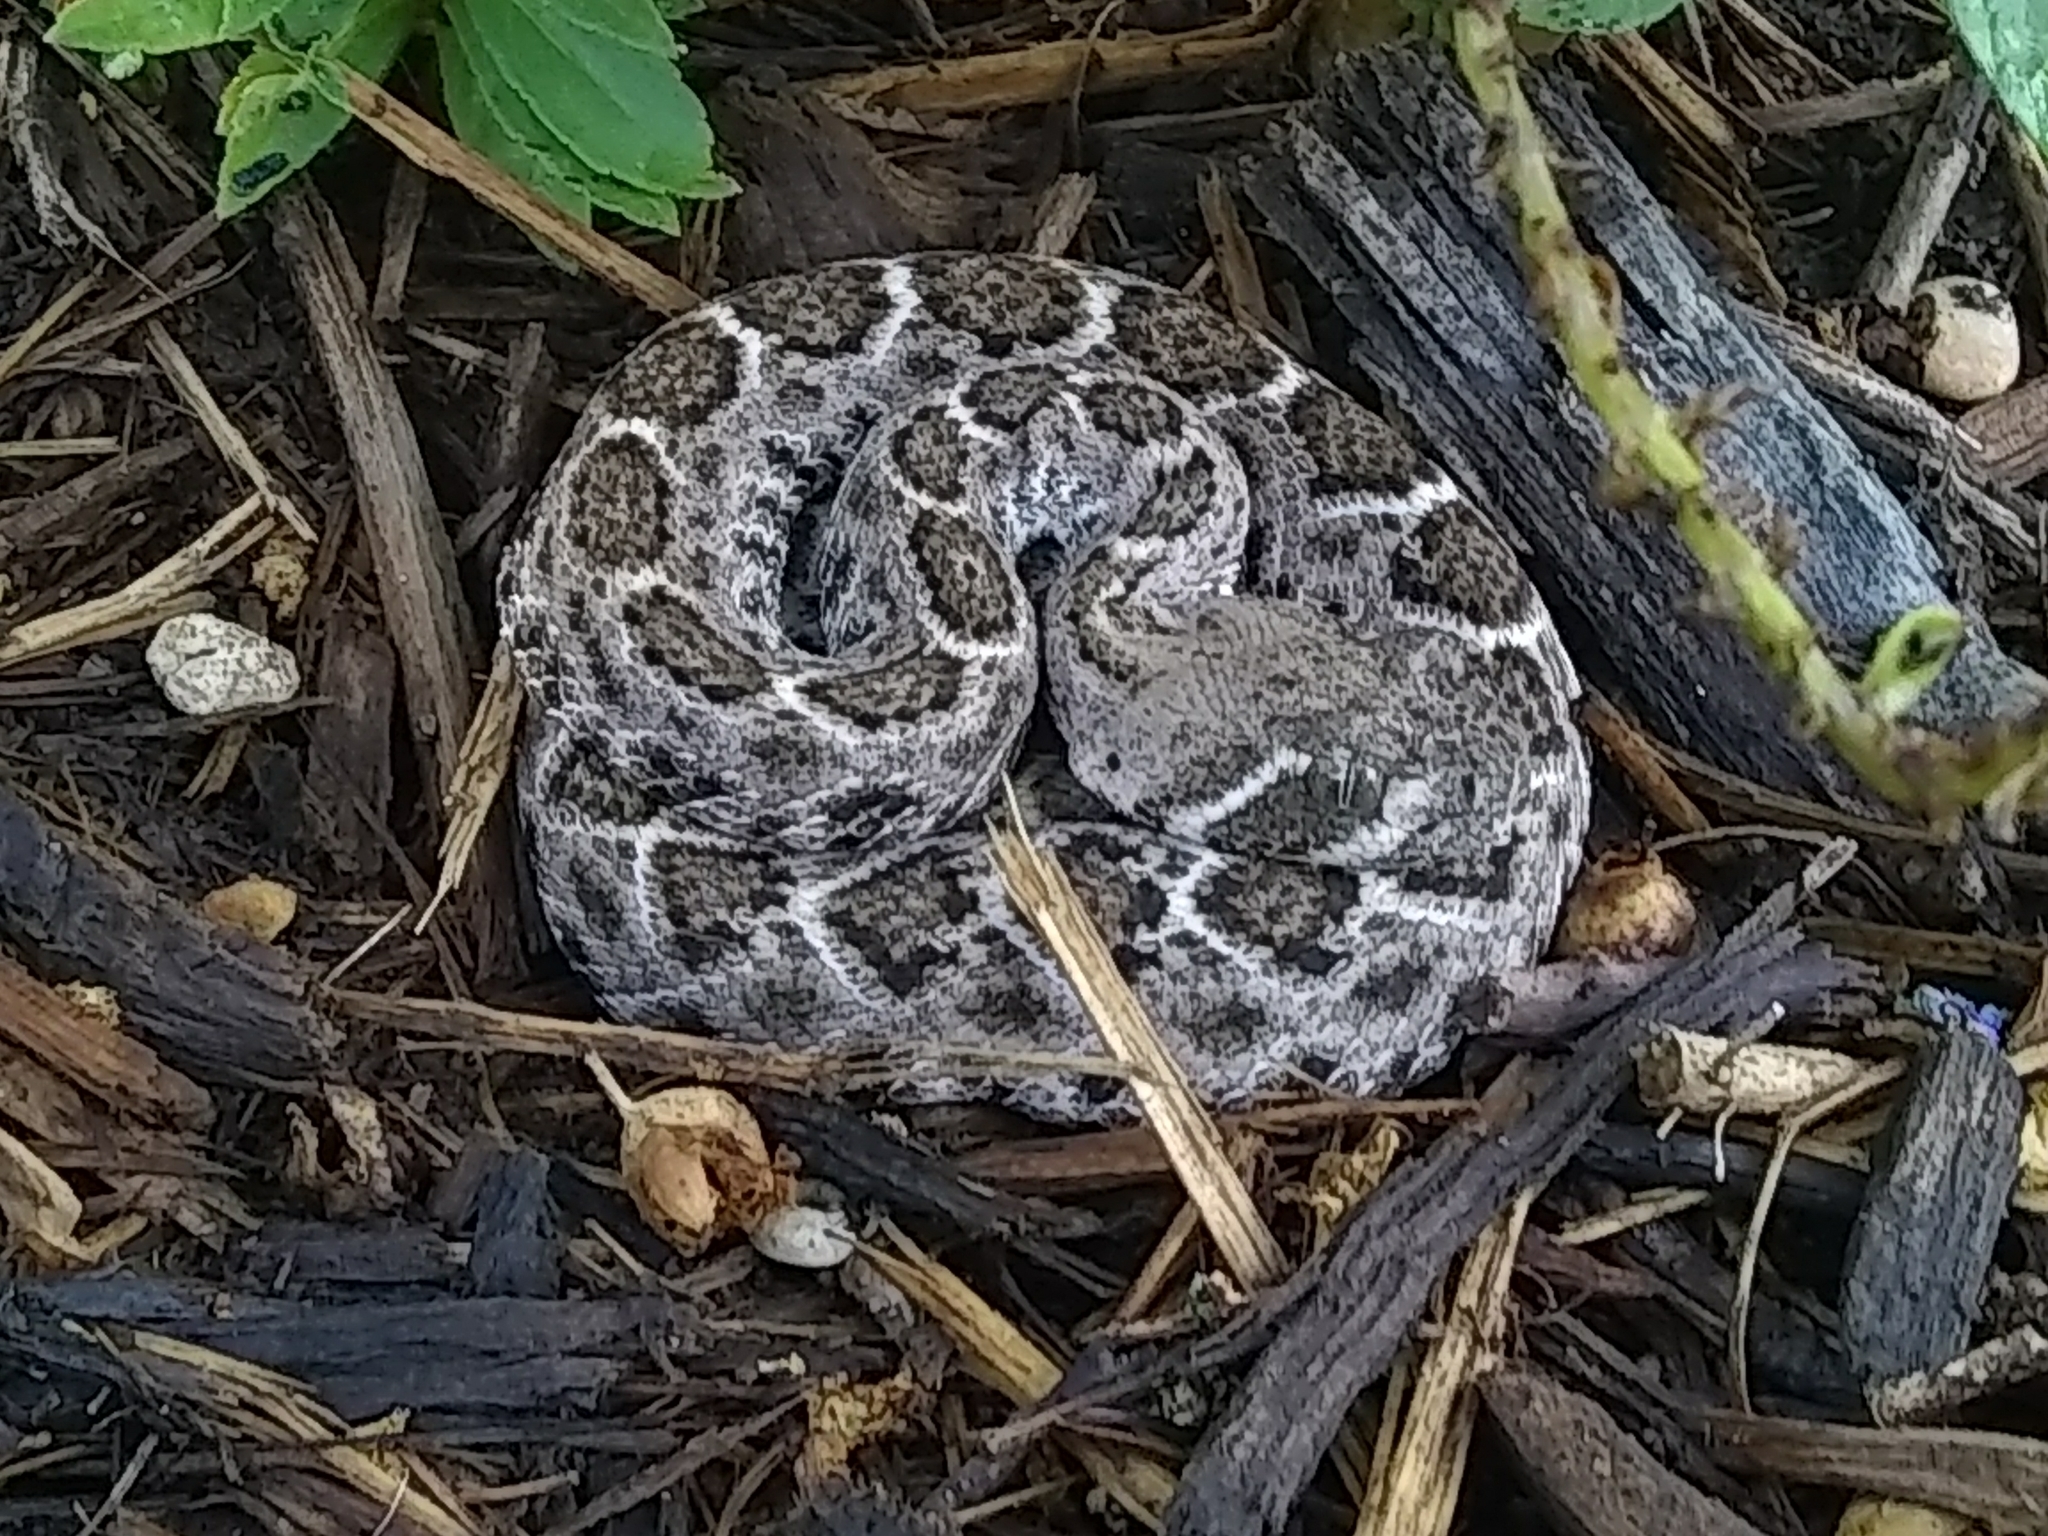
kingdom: Animalia
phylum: Chordata
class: Squamata
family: Viperidae
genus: Crotalus
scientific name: Crotalus atrox
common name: Western diamond-backed rattlesnake
